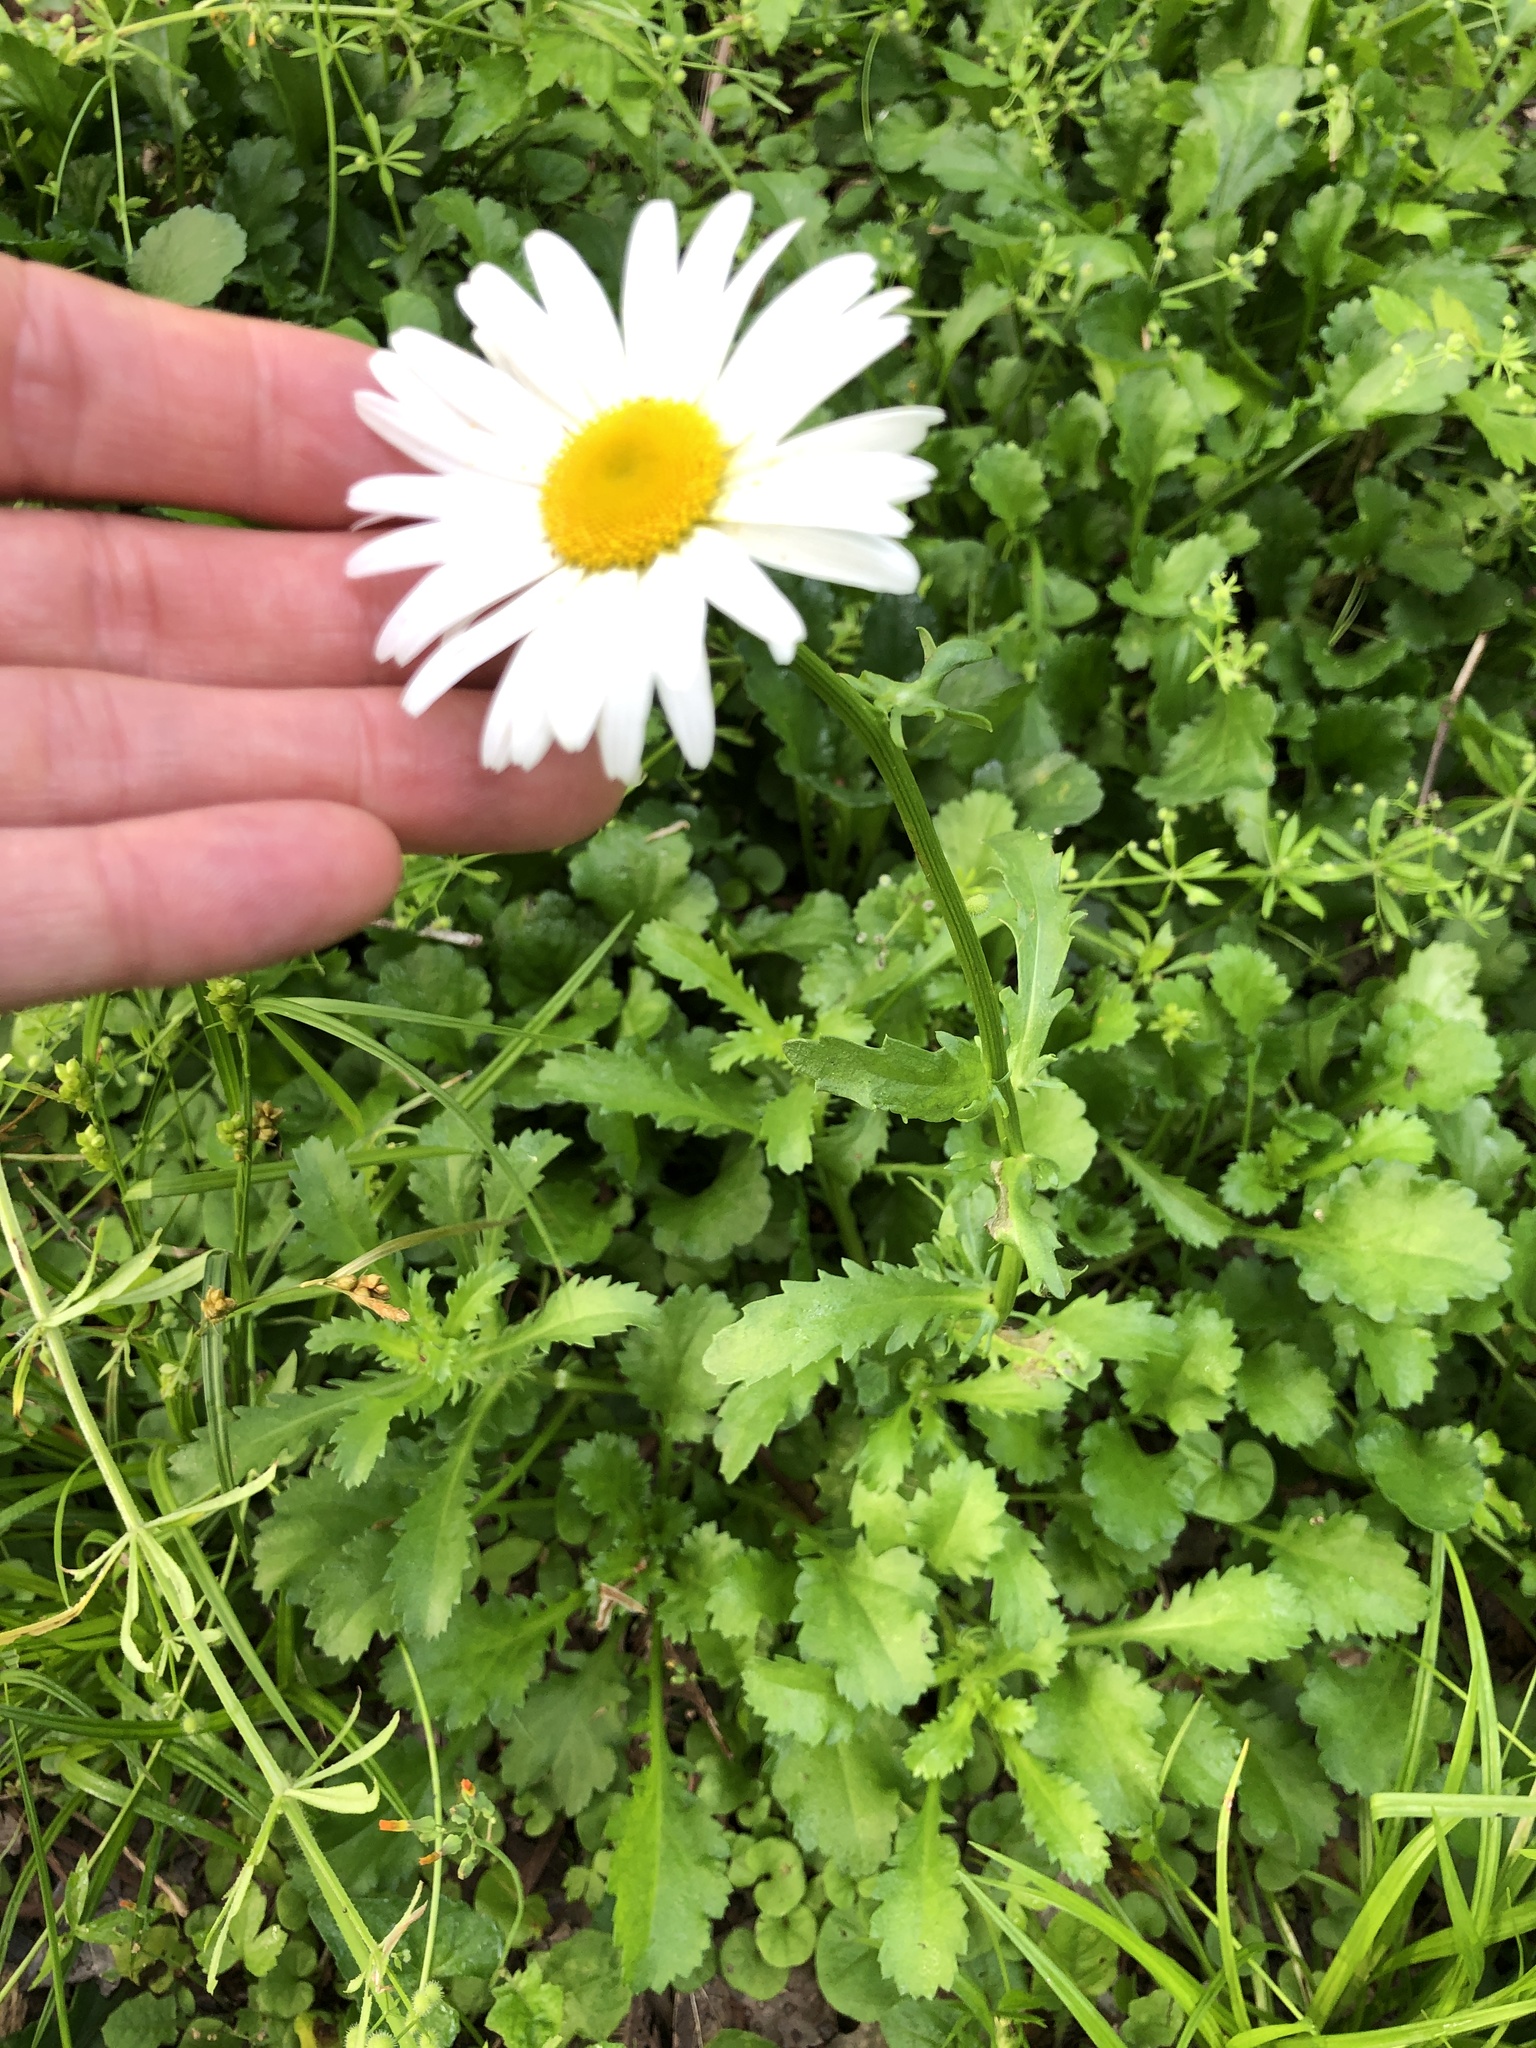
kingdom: Plantae
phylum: Tracheophyta
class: Magnoliopsida
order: Asterales
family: Asteraceae
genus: Leucanthemum
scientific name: Leucanthemum vulgare
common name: Oxeye daisy
